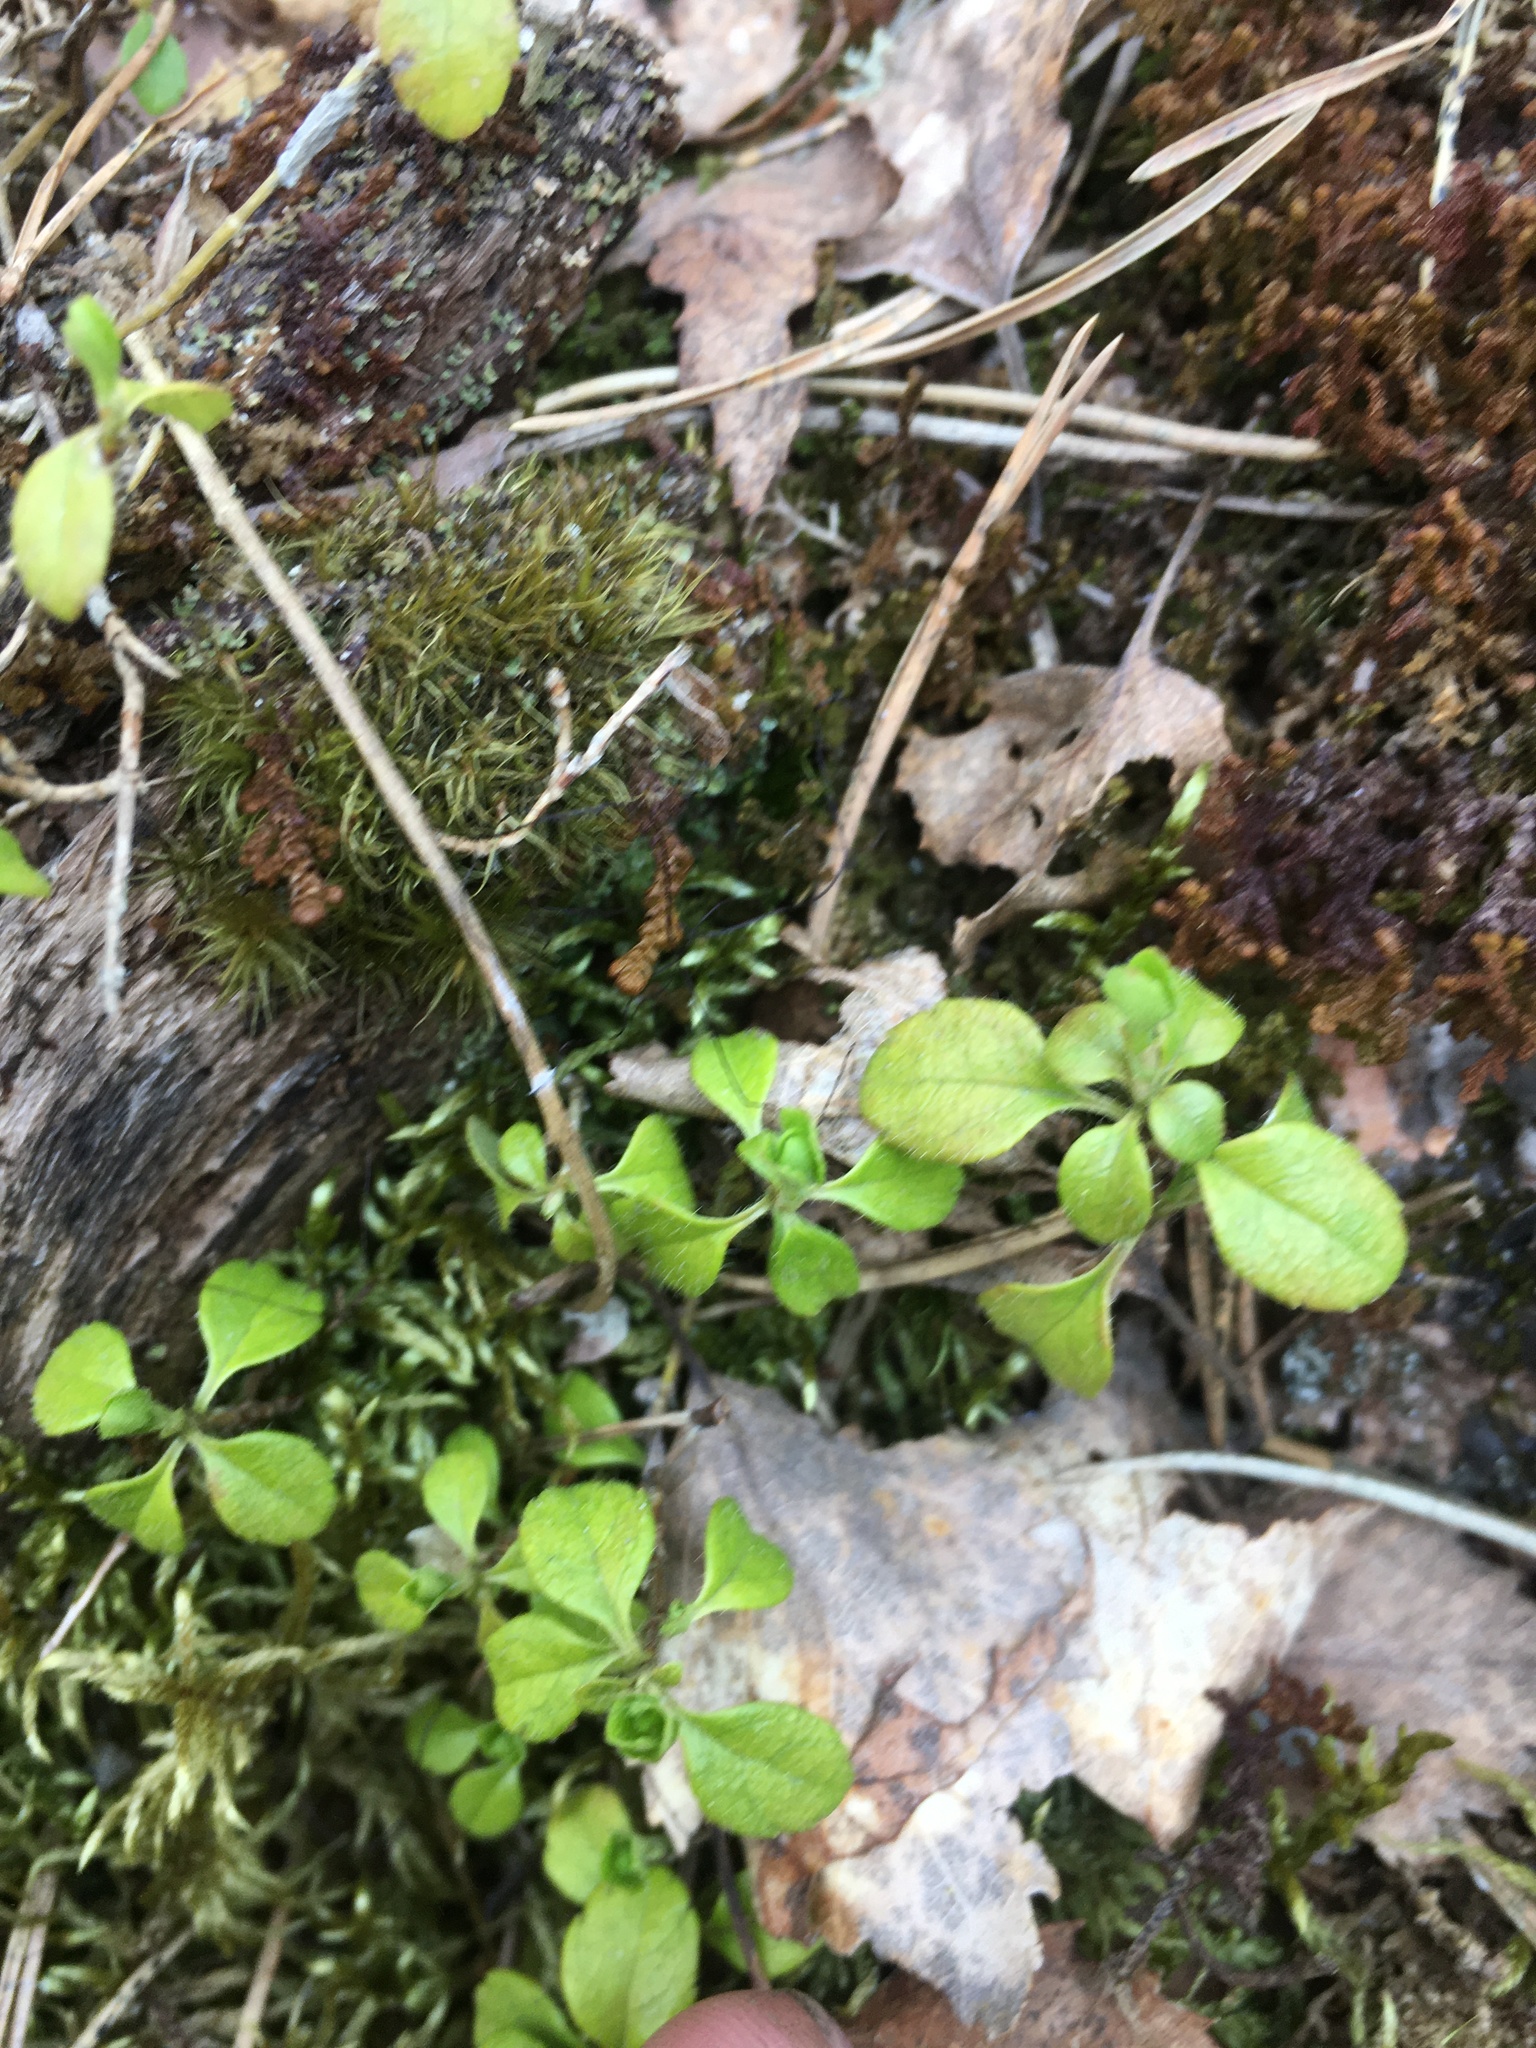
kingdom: Plantae
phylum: Tracheophyta
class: Magnoliopsida
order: Dipsacales
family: Caprifoliaceae
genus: Linnaea
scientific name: Linnaea borealis
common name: Twinflower
